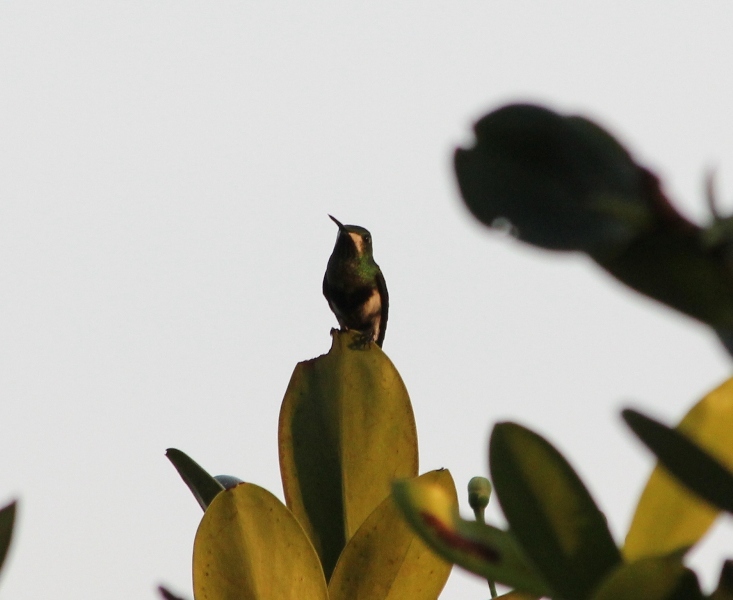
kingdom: Animalia
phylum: Chordata
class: Aves
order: Apodiformes
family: Trochilidae
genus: Discosura
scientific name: Discosura langsdorffi
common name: Black-bellied thorntail
